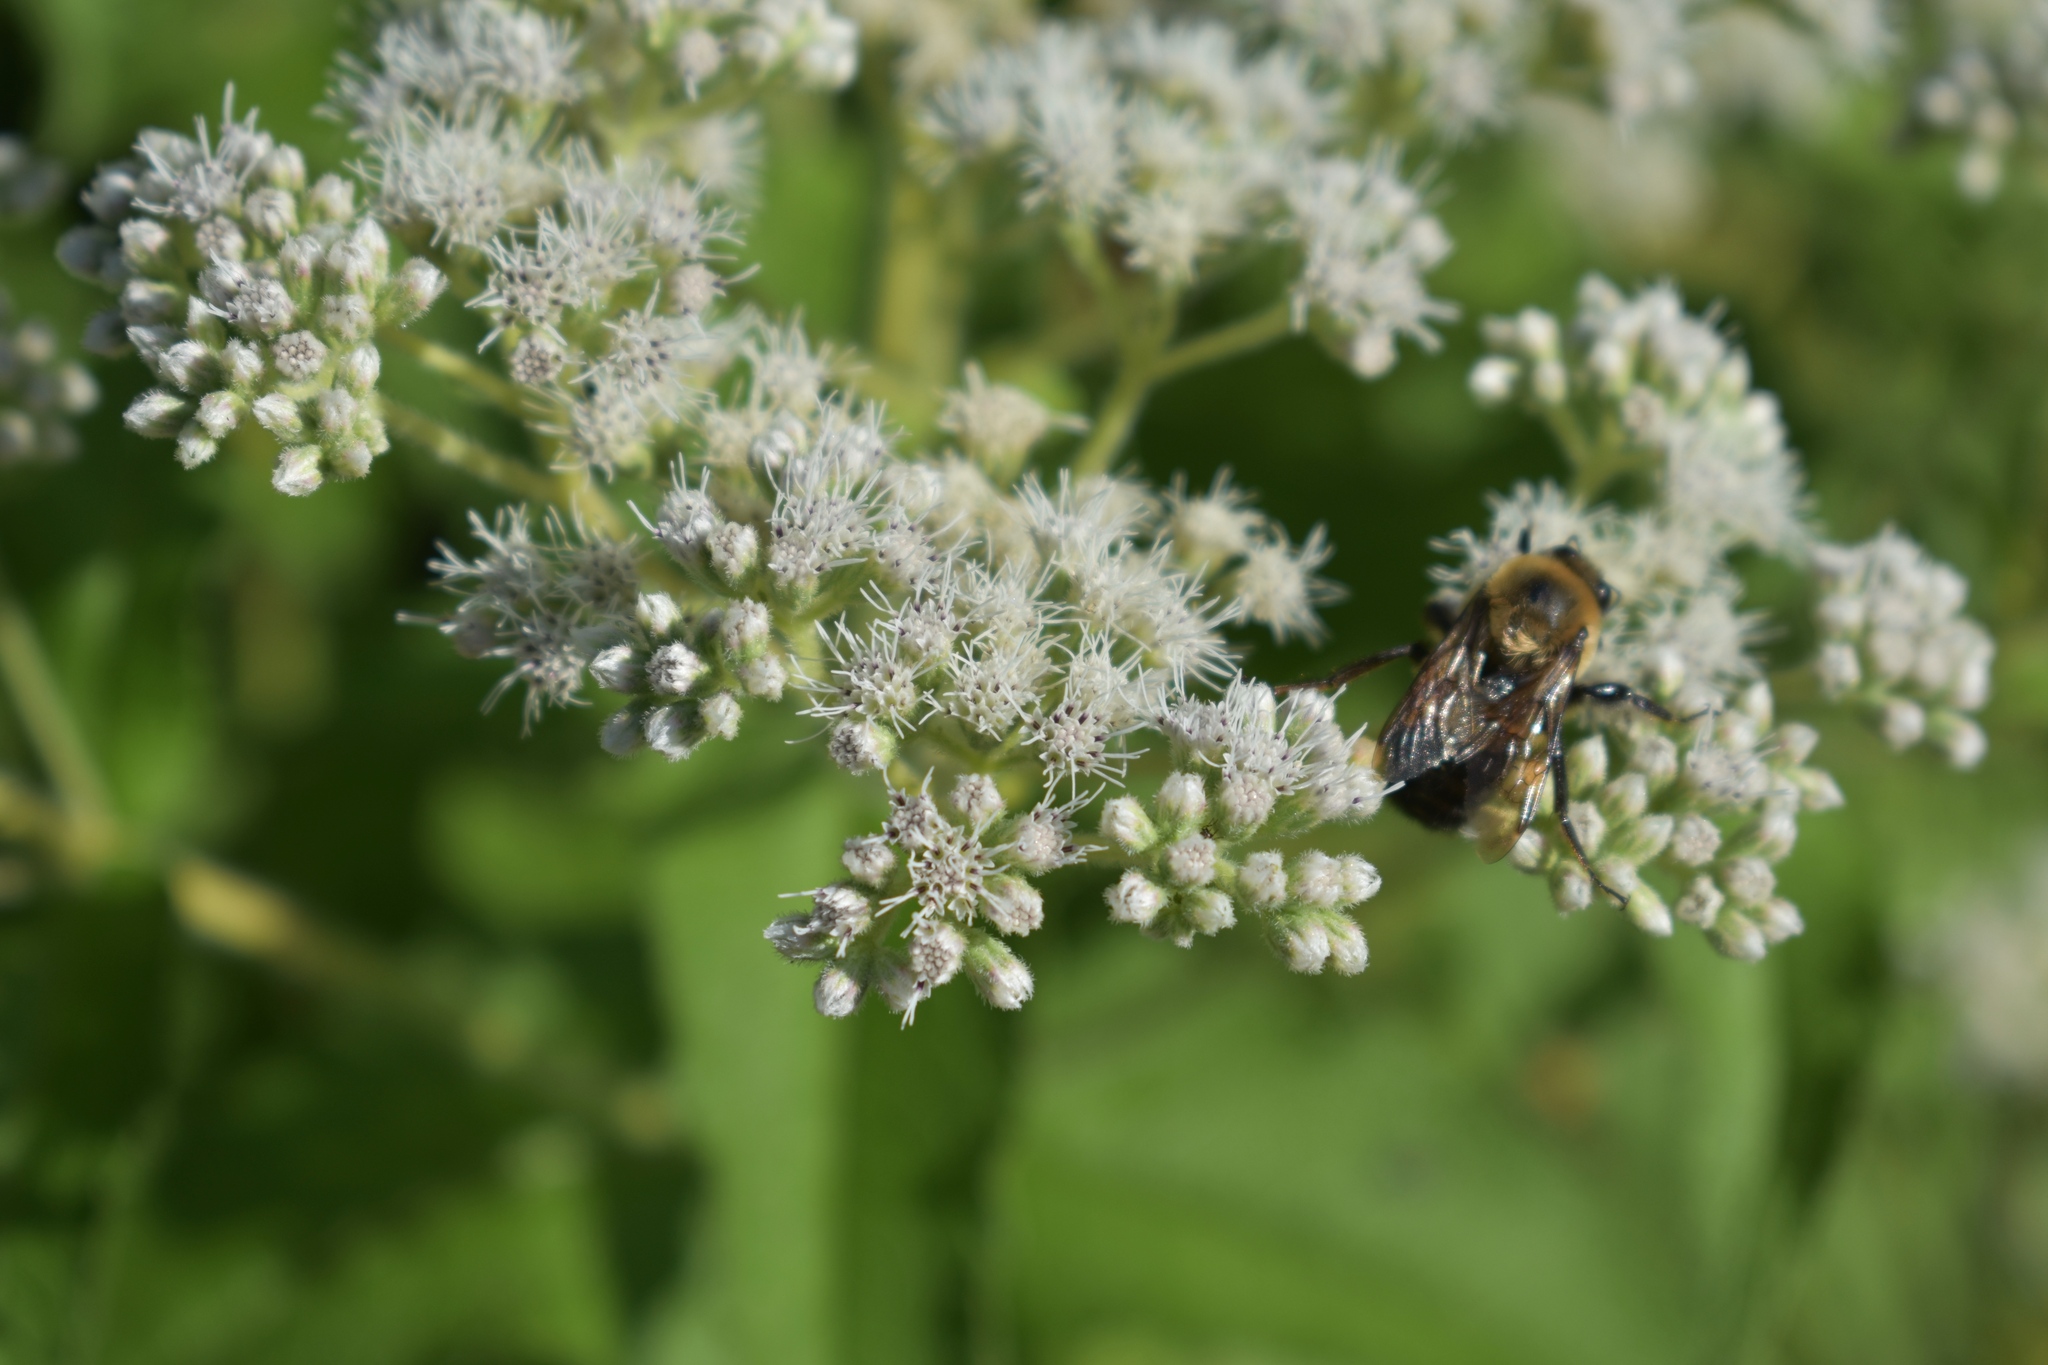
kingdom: Animalia
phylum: Arthropoda
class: Insecta
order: Hymenoptera
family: Apidae
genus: Bombus
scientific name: Bombus griseocollis
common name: Brown-belted bumble bee
